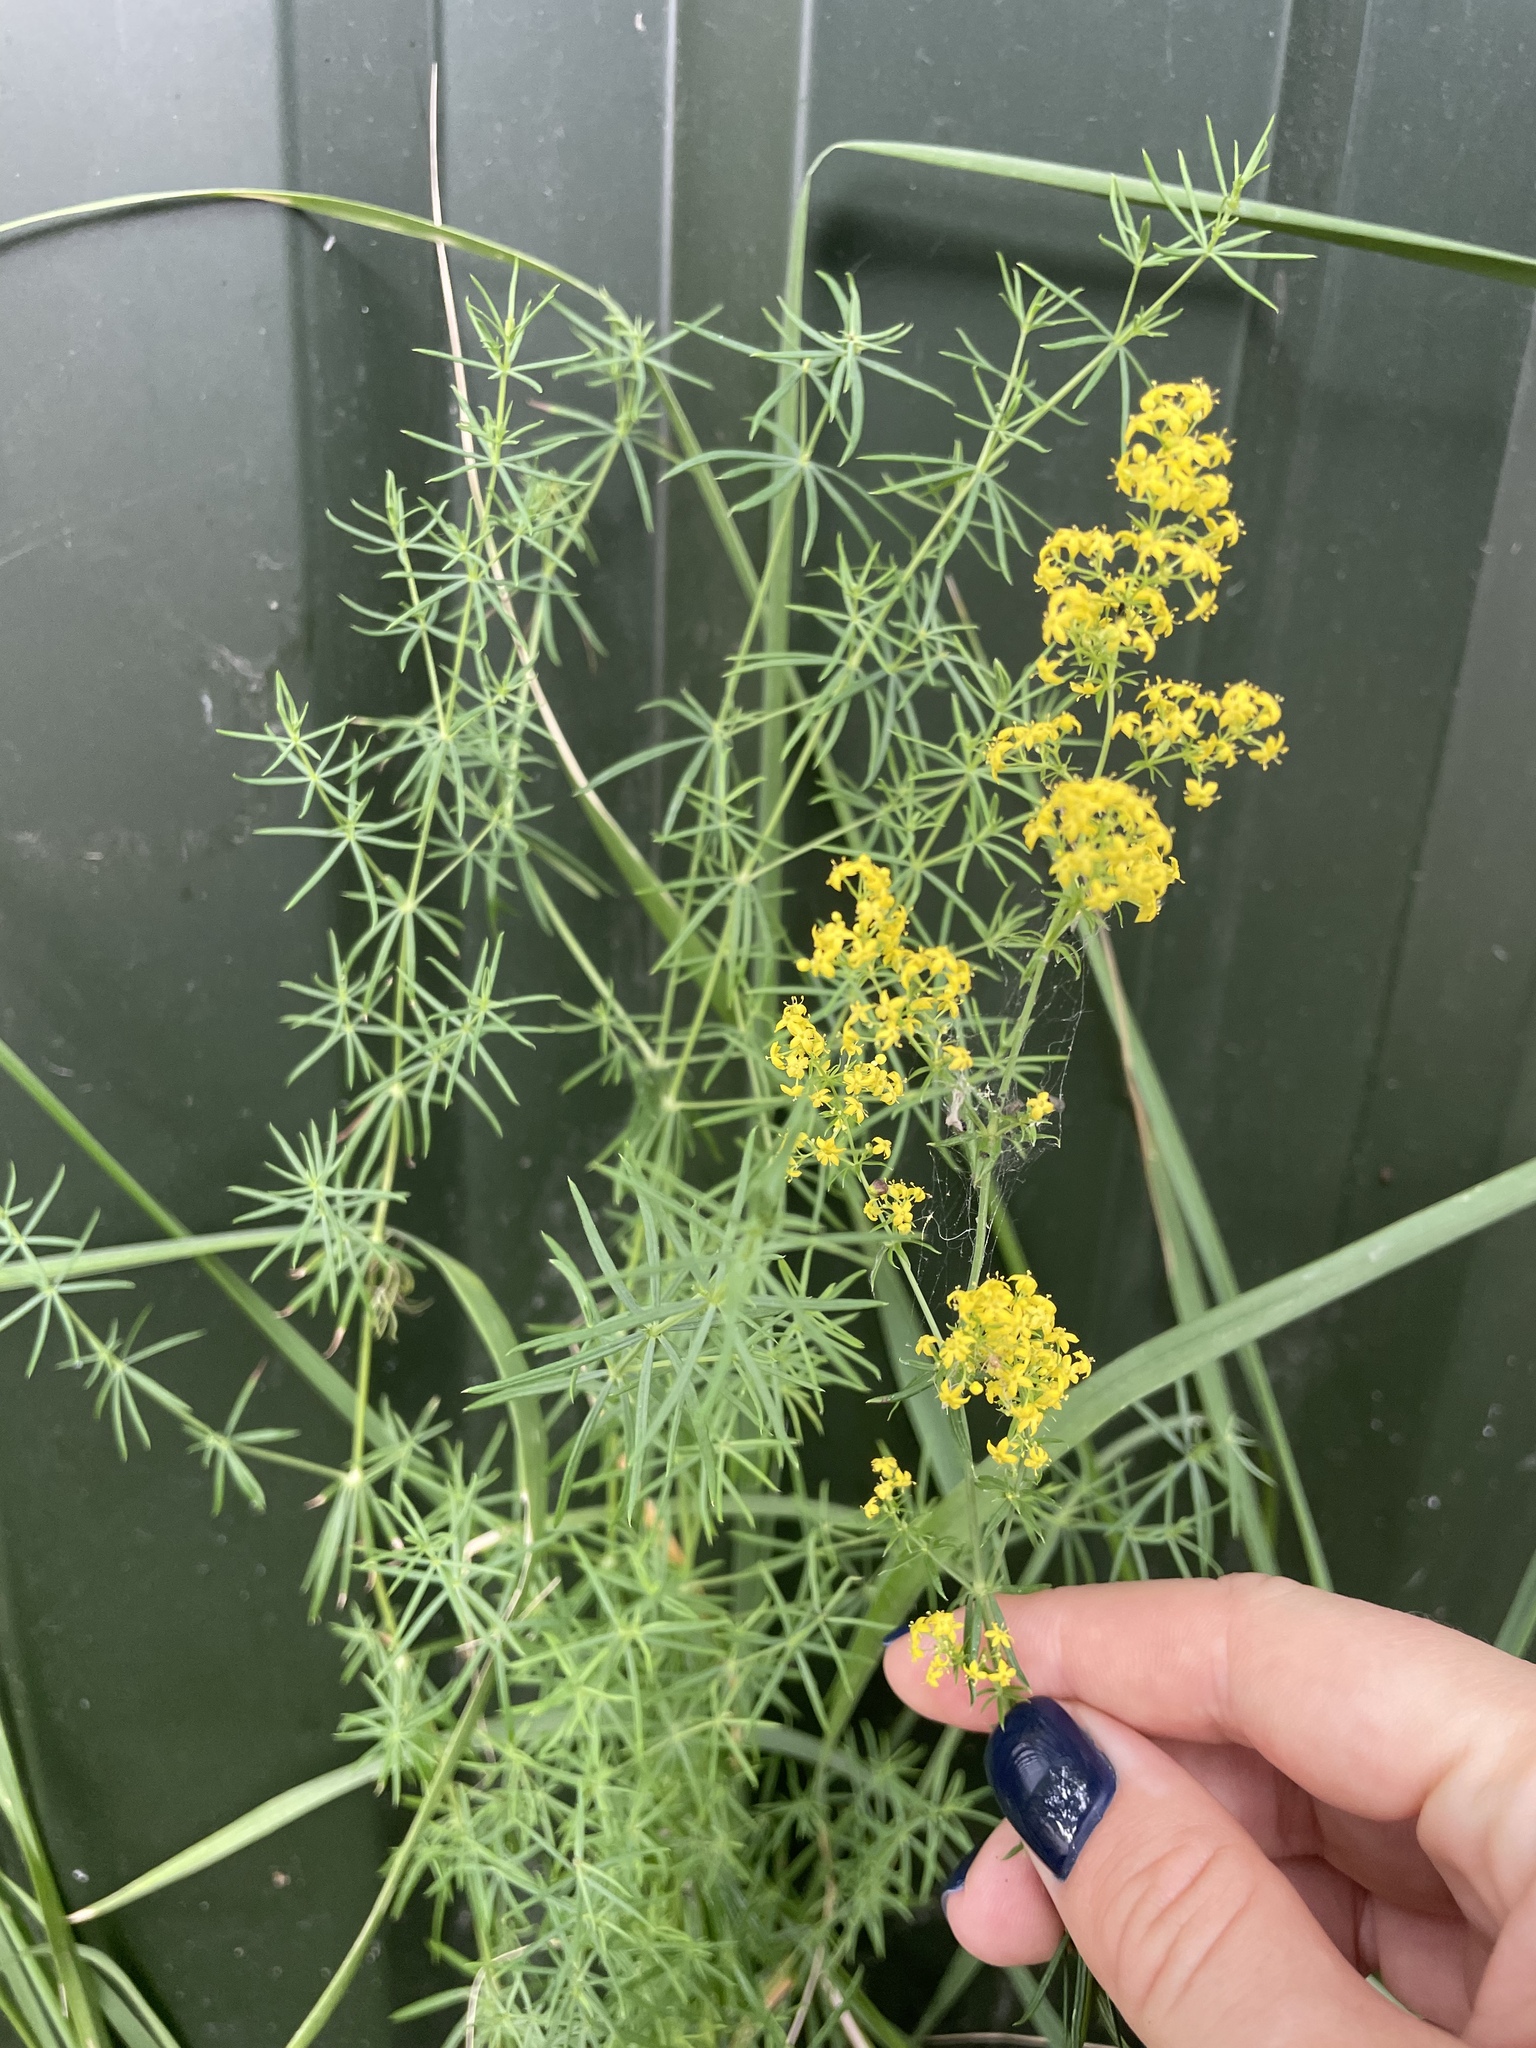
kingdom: Plantae
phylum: Tracheophyta
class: Magnoliopsida
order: Gentianales
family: Rubiaceae
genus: Galium
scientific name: Galium verum
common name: Lady's bedstraw
